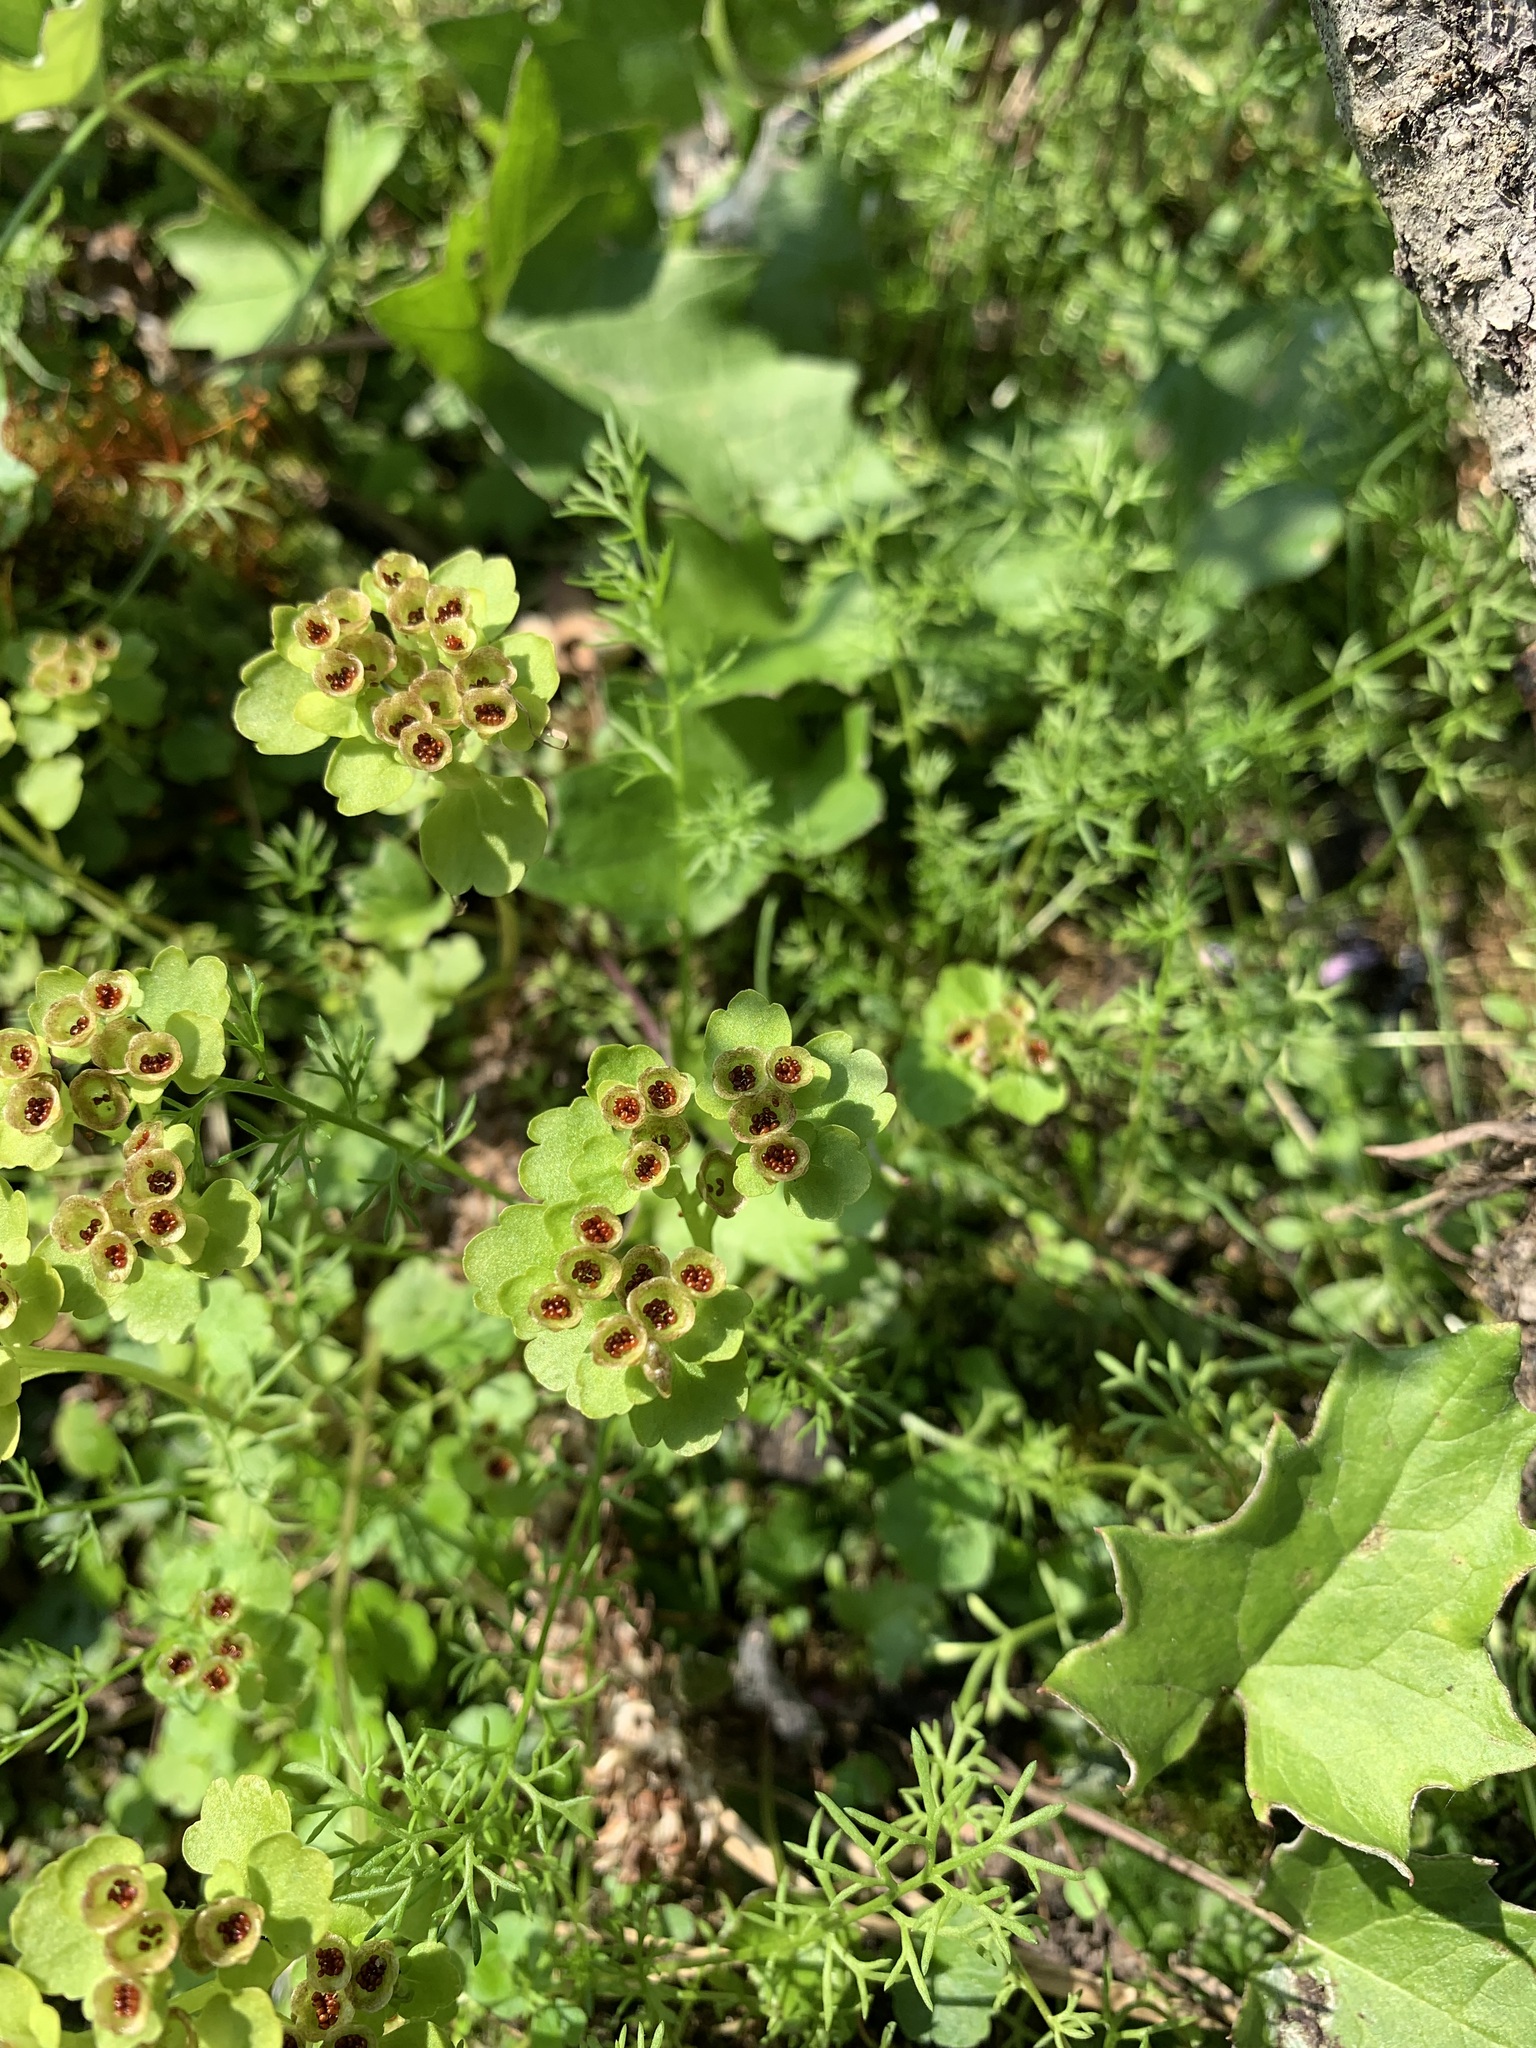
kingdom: Plantae
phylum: Tracheophyta
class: Magnoliopsida
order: Saxifragales
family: Saxifragaceae
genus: Chrysosplenium
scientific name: Chrysosplenium tetrandrum
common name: Green saxifrage
